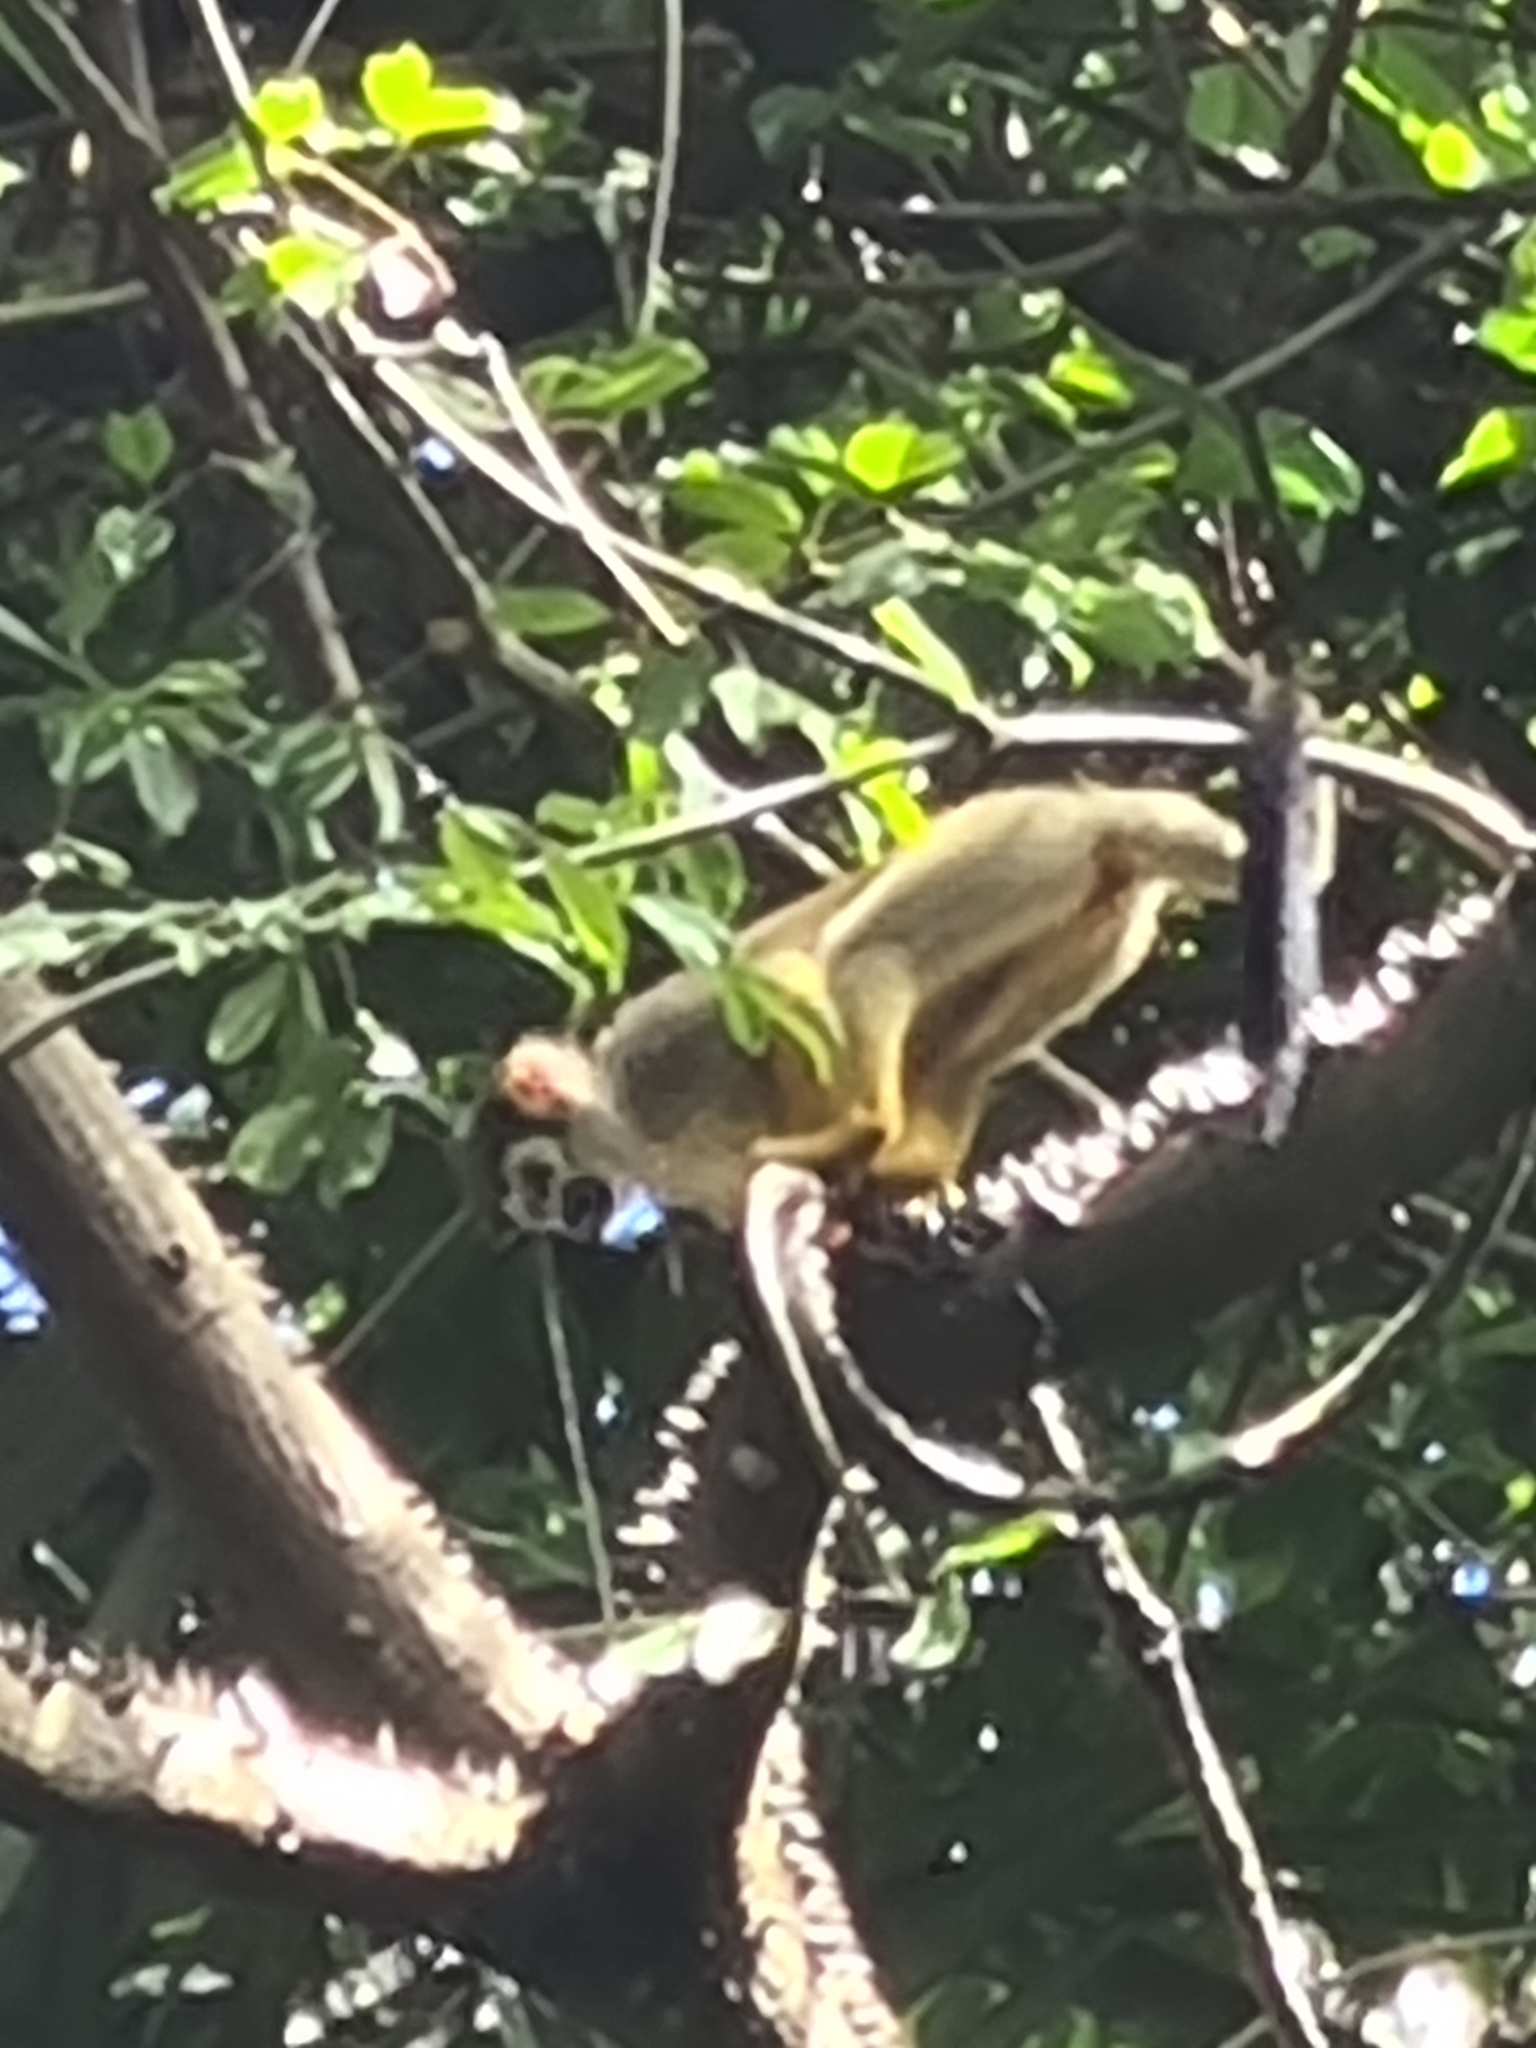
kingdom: Animalia
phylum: Chordata
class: Mammalia
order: Primates
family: Cebidae
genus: Saimiri
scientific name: Saimiri sciureus
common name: Common squirrel monkey
